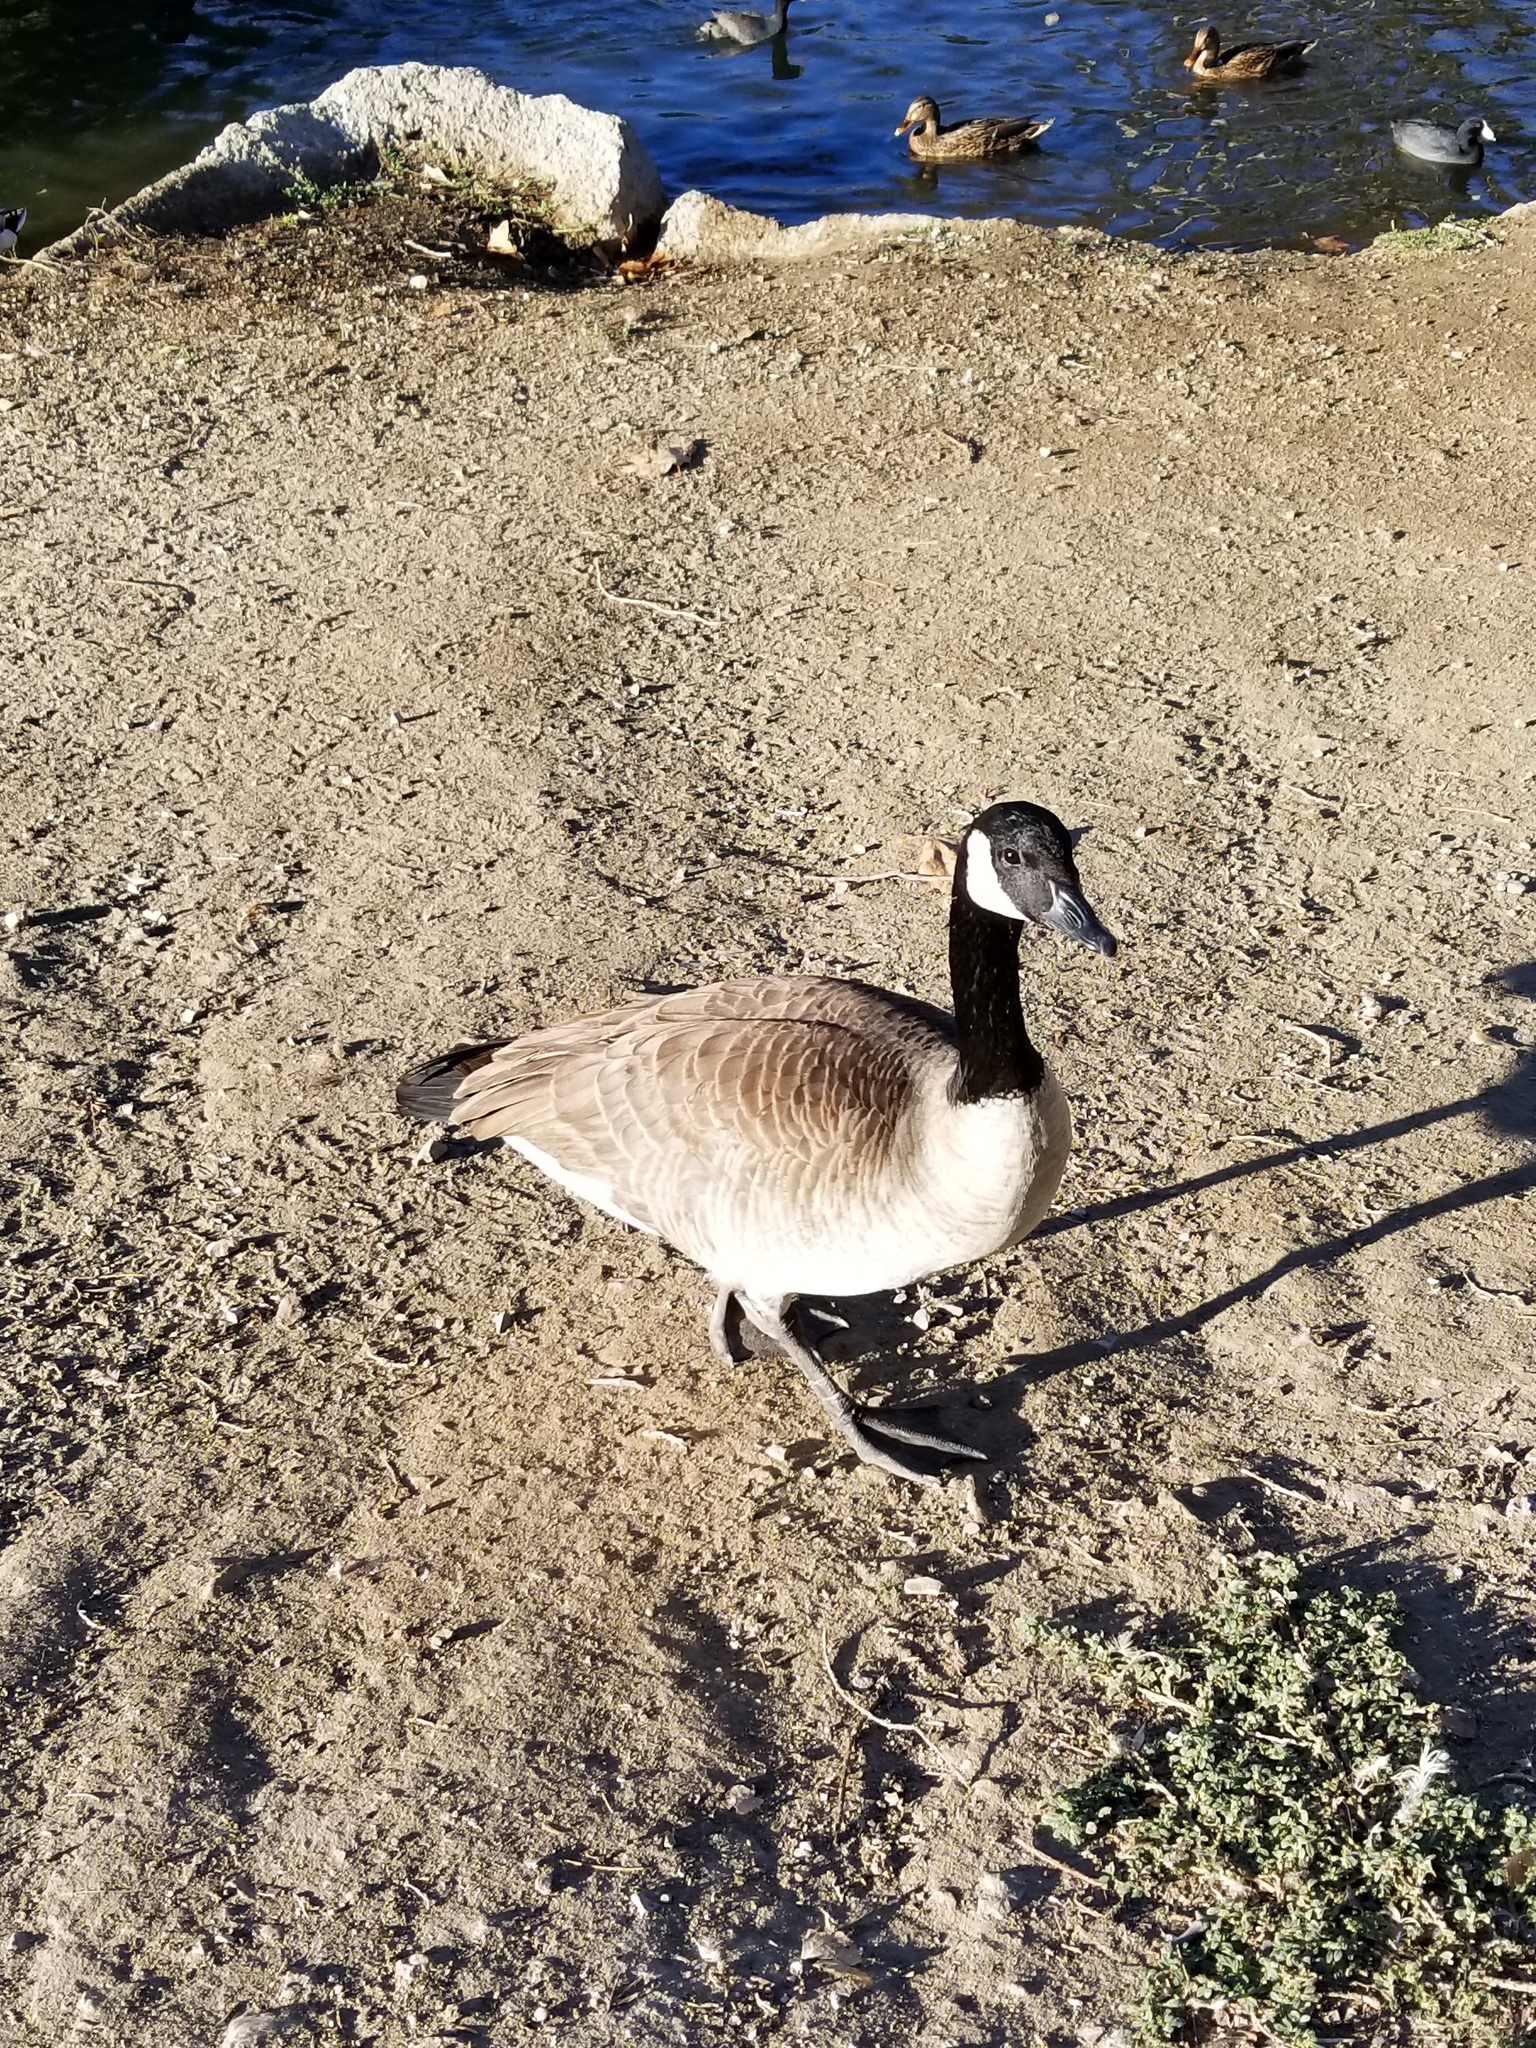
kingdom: Animalia
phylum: Chordata
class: Aves
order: Anseriformes
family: Anatidae
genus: Branta
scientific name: Branta canadensis
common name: Canada goose
